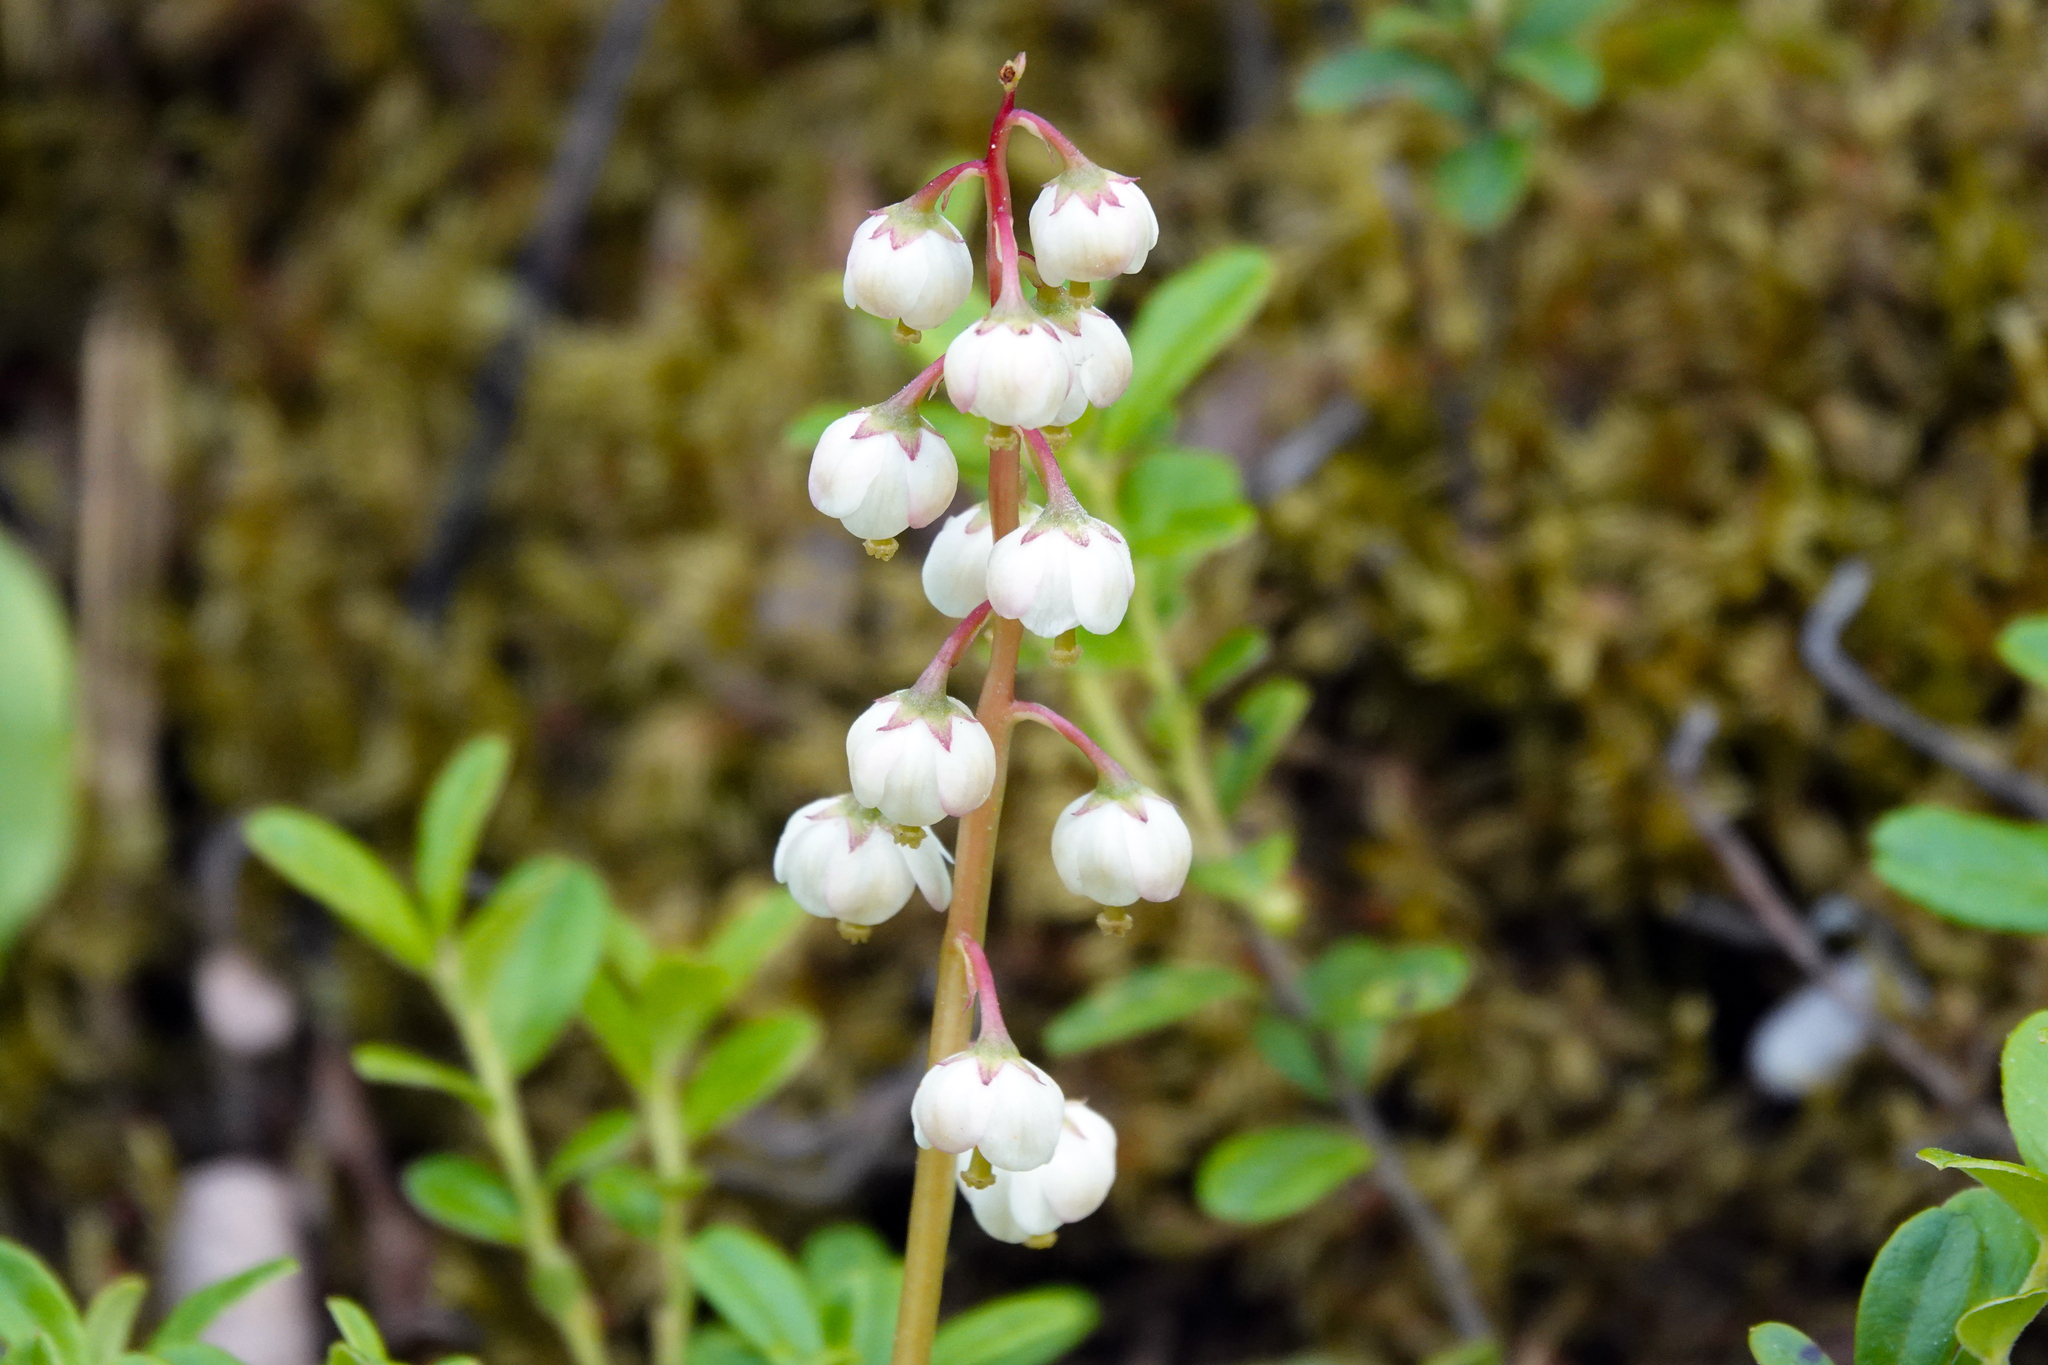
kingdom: Plantae
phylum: Tracheophyta
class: Magnoliopsida
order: Ericales
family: Ericaceae
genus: Pyrola
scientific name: Pyrola media
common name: Intermediate wintergreen
